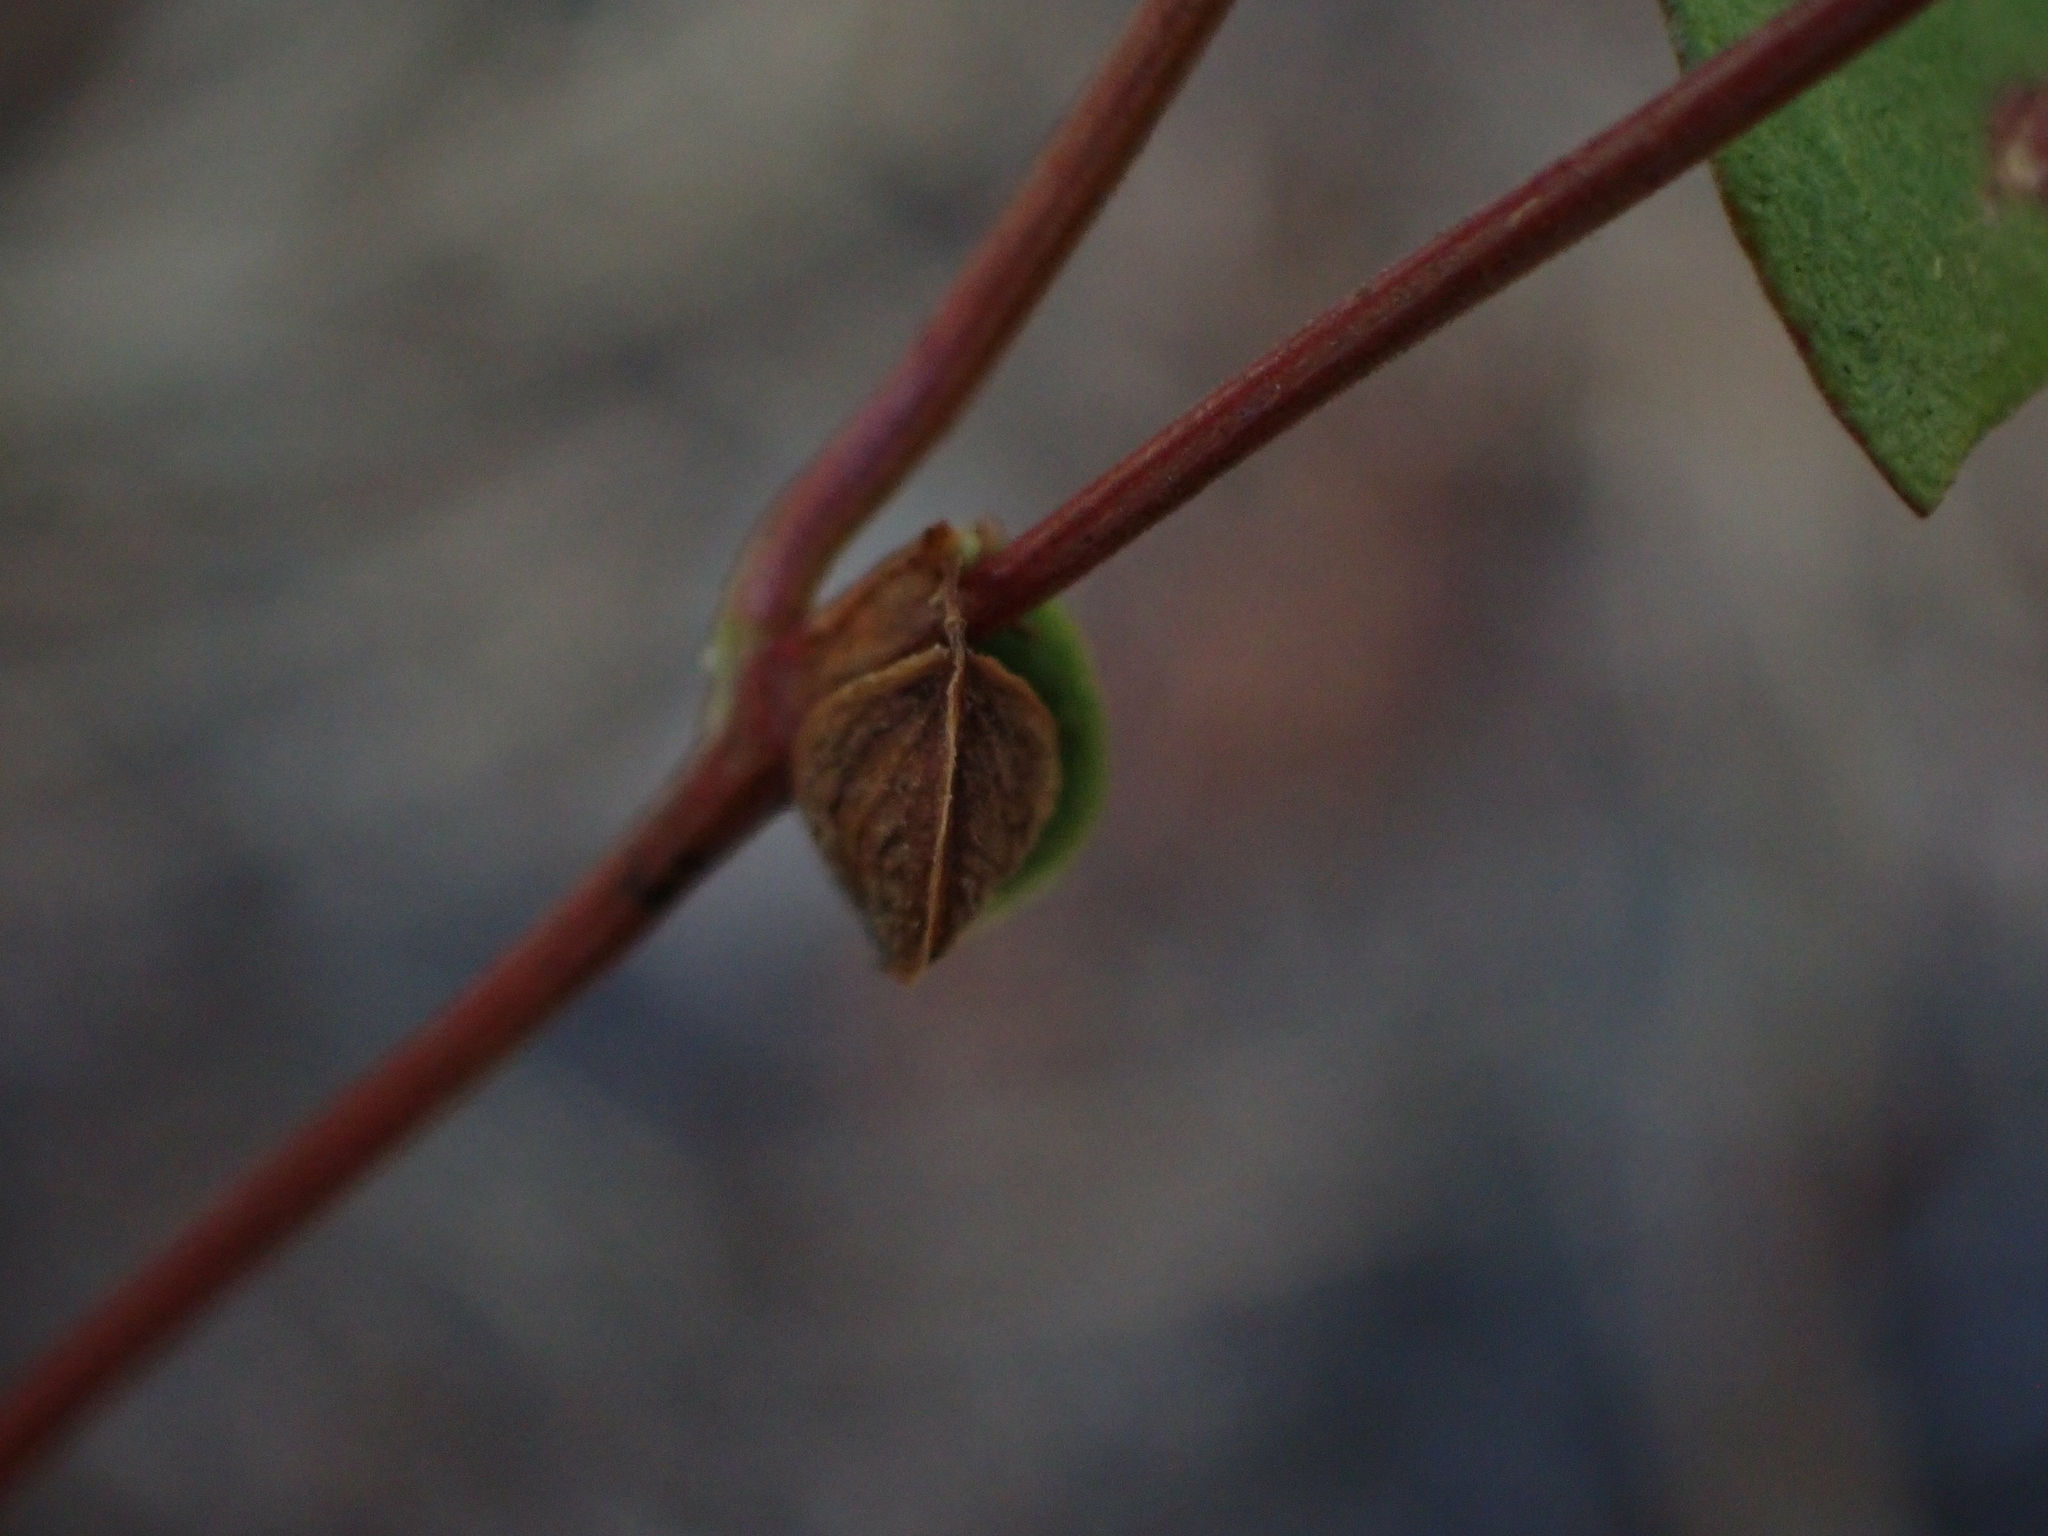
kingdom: Plantae
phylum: Tracheophyta
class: Magnoliopsida
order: Caryophyllales
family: Polygonaceae
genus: Fallopia
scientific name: Fallopia convolvulus
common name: Black bindweed
